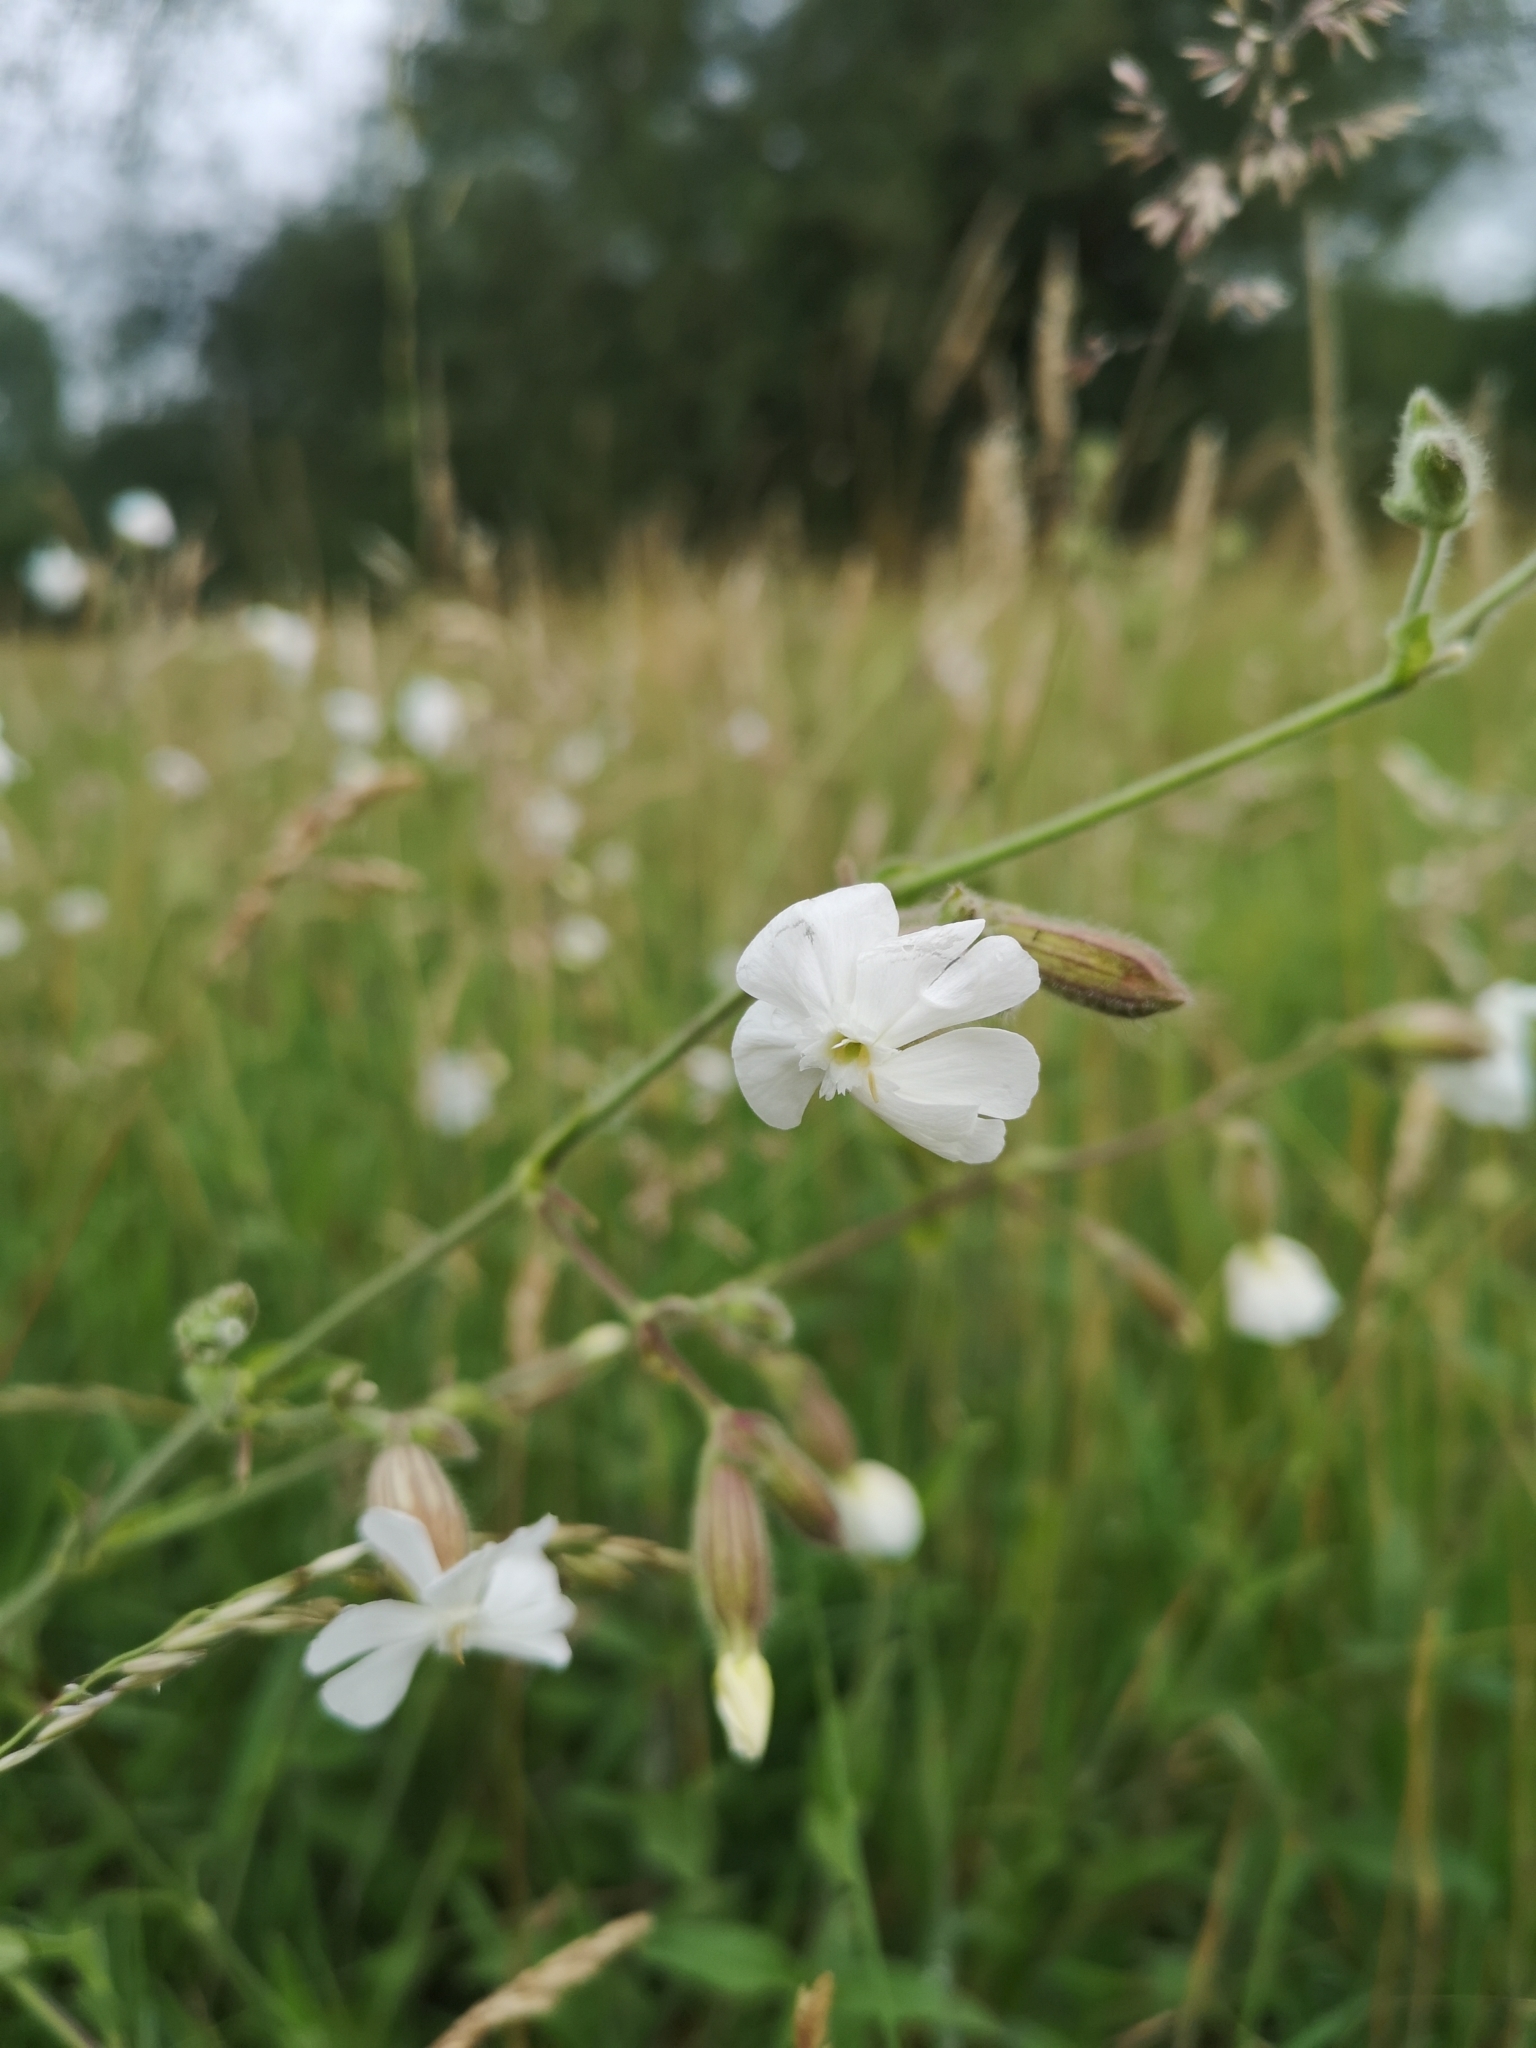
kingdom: Plantae
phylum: Tracheophyta
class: Magnoliopsida
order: Caryophyllales
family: Caryophyllaceae
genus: Silene
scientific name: Silene latifolia
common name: White campion
